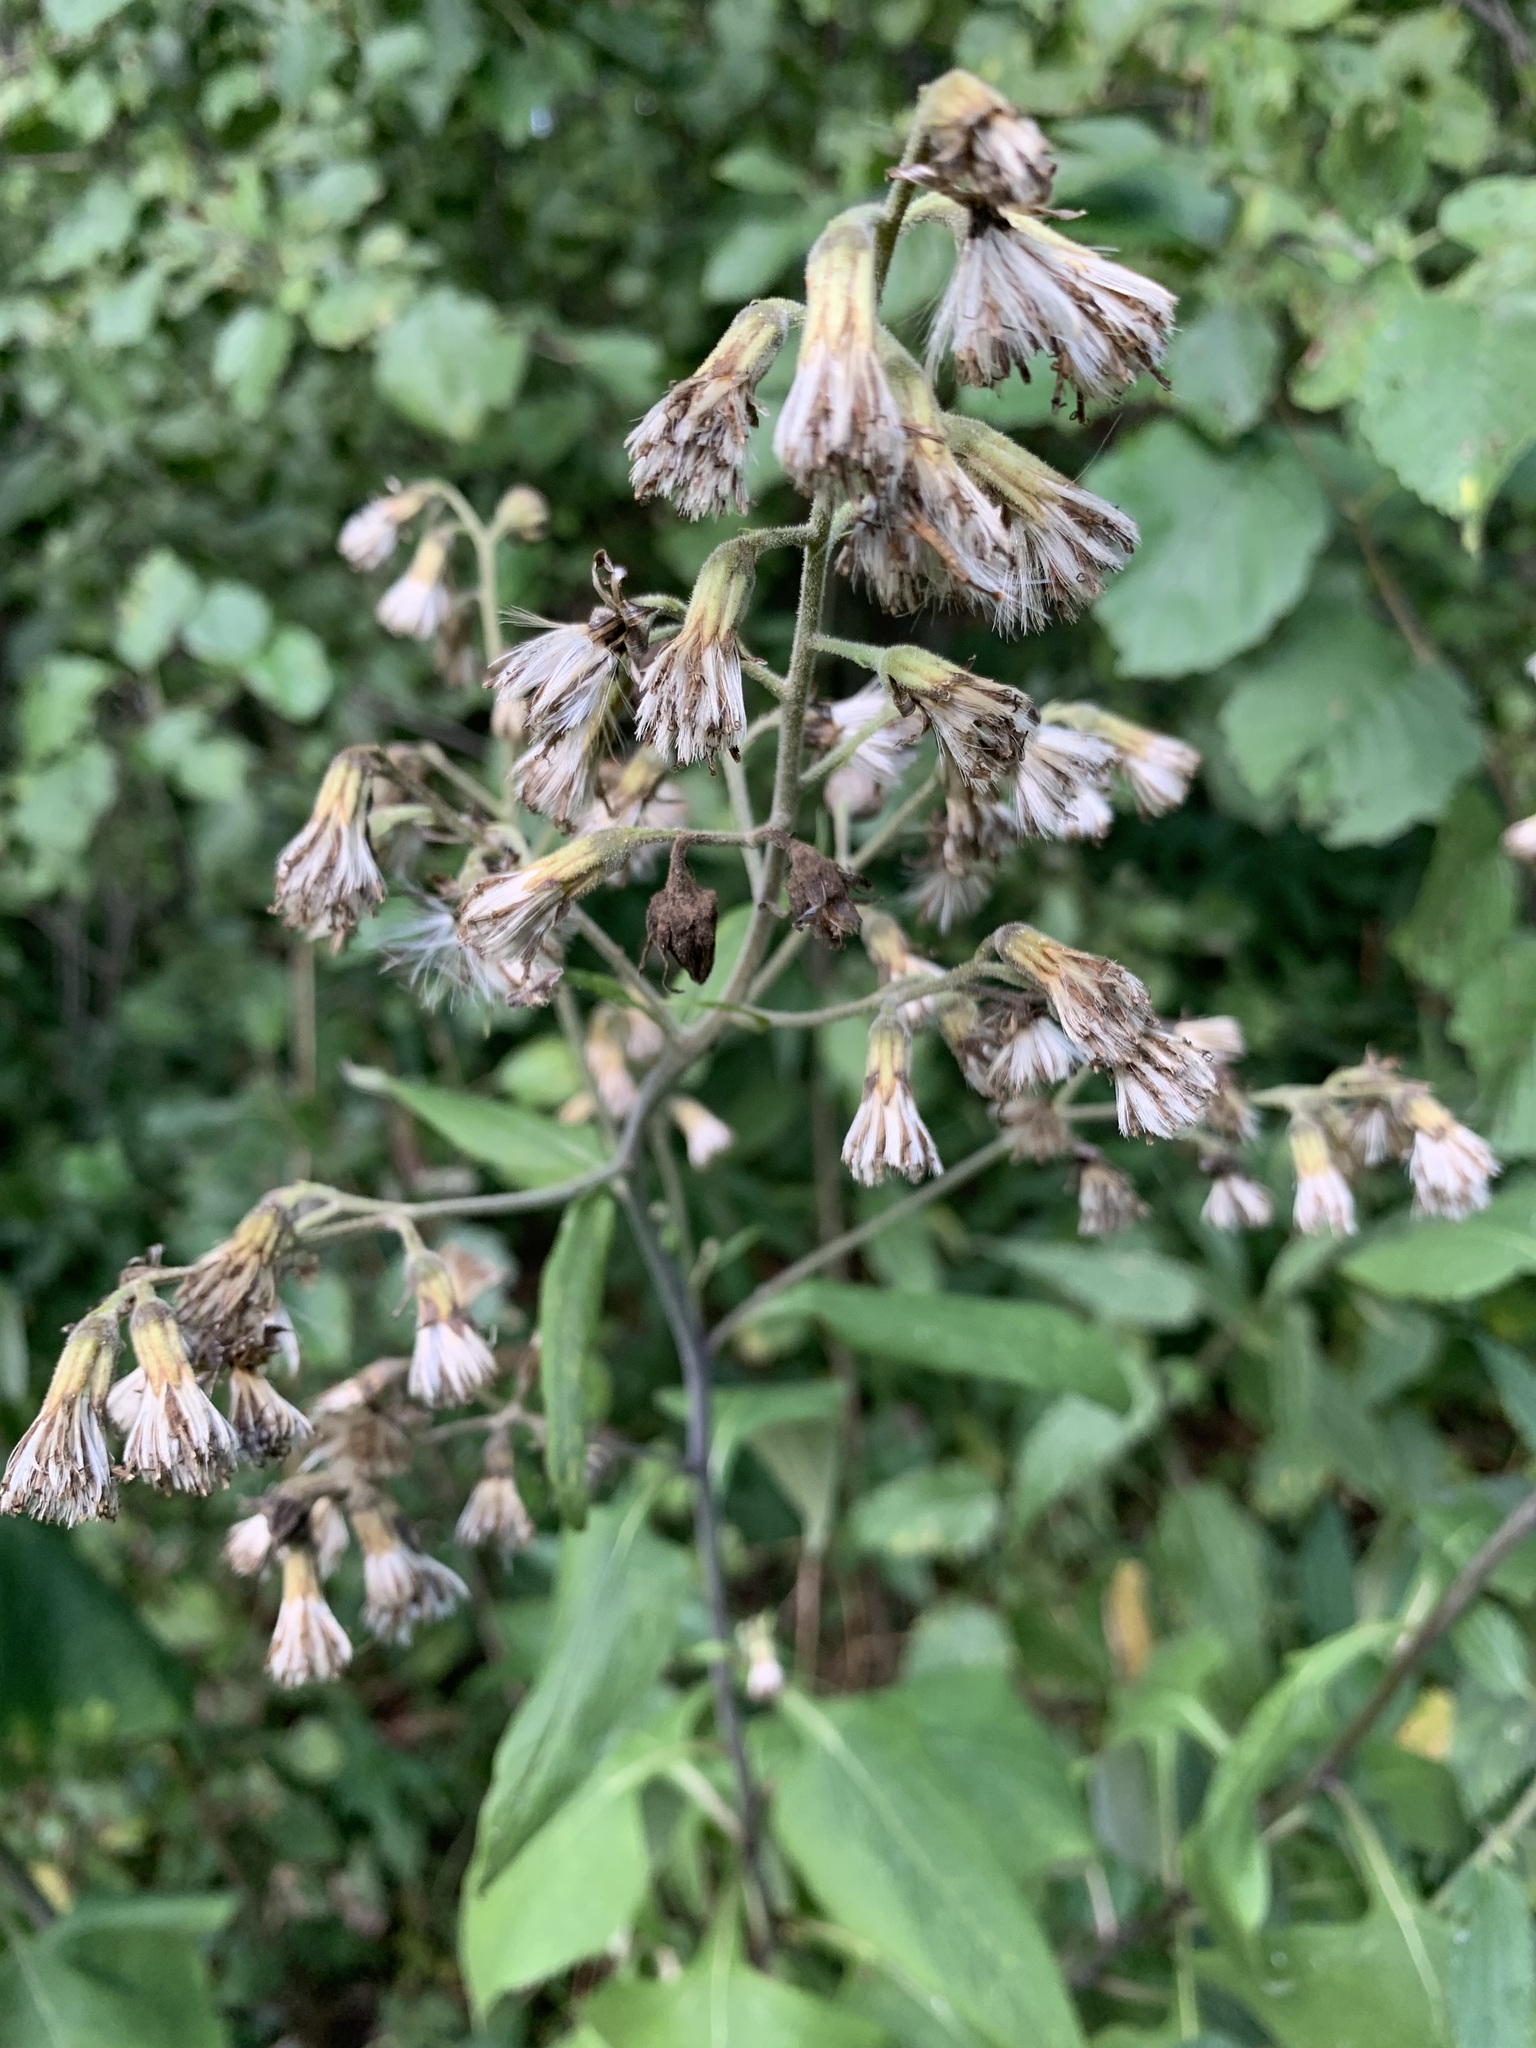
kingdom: Plantae
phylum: Tracheophyta
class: Magnoliopsida
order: Asterales
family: Asteraceae
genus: Parasenecio
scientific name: Parasenecio hastatus
